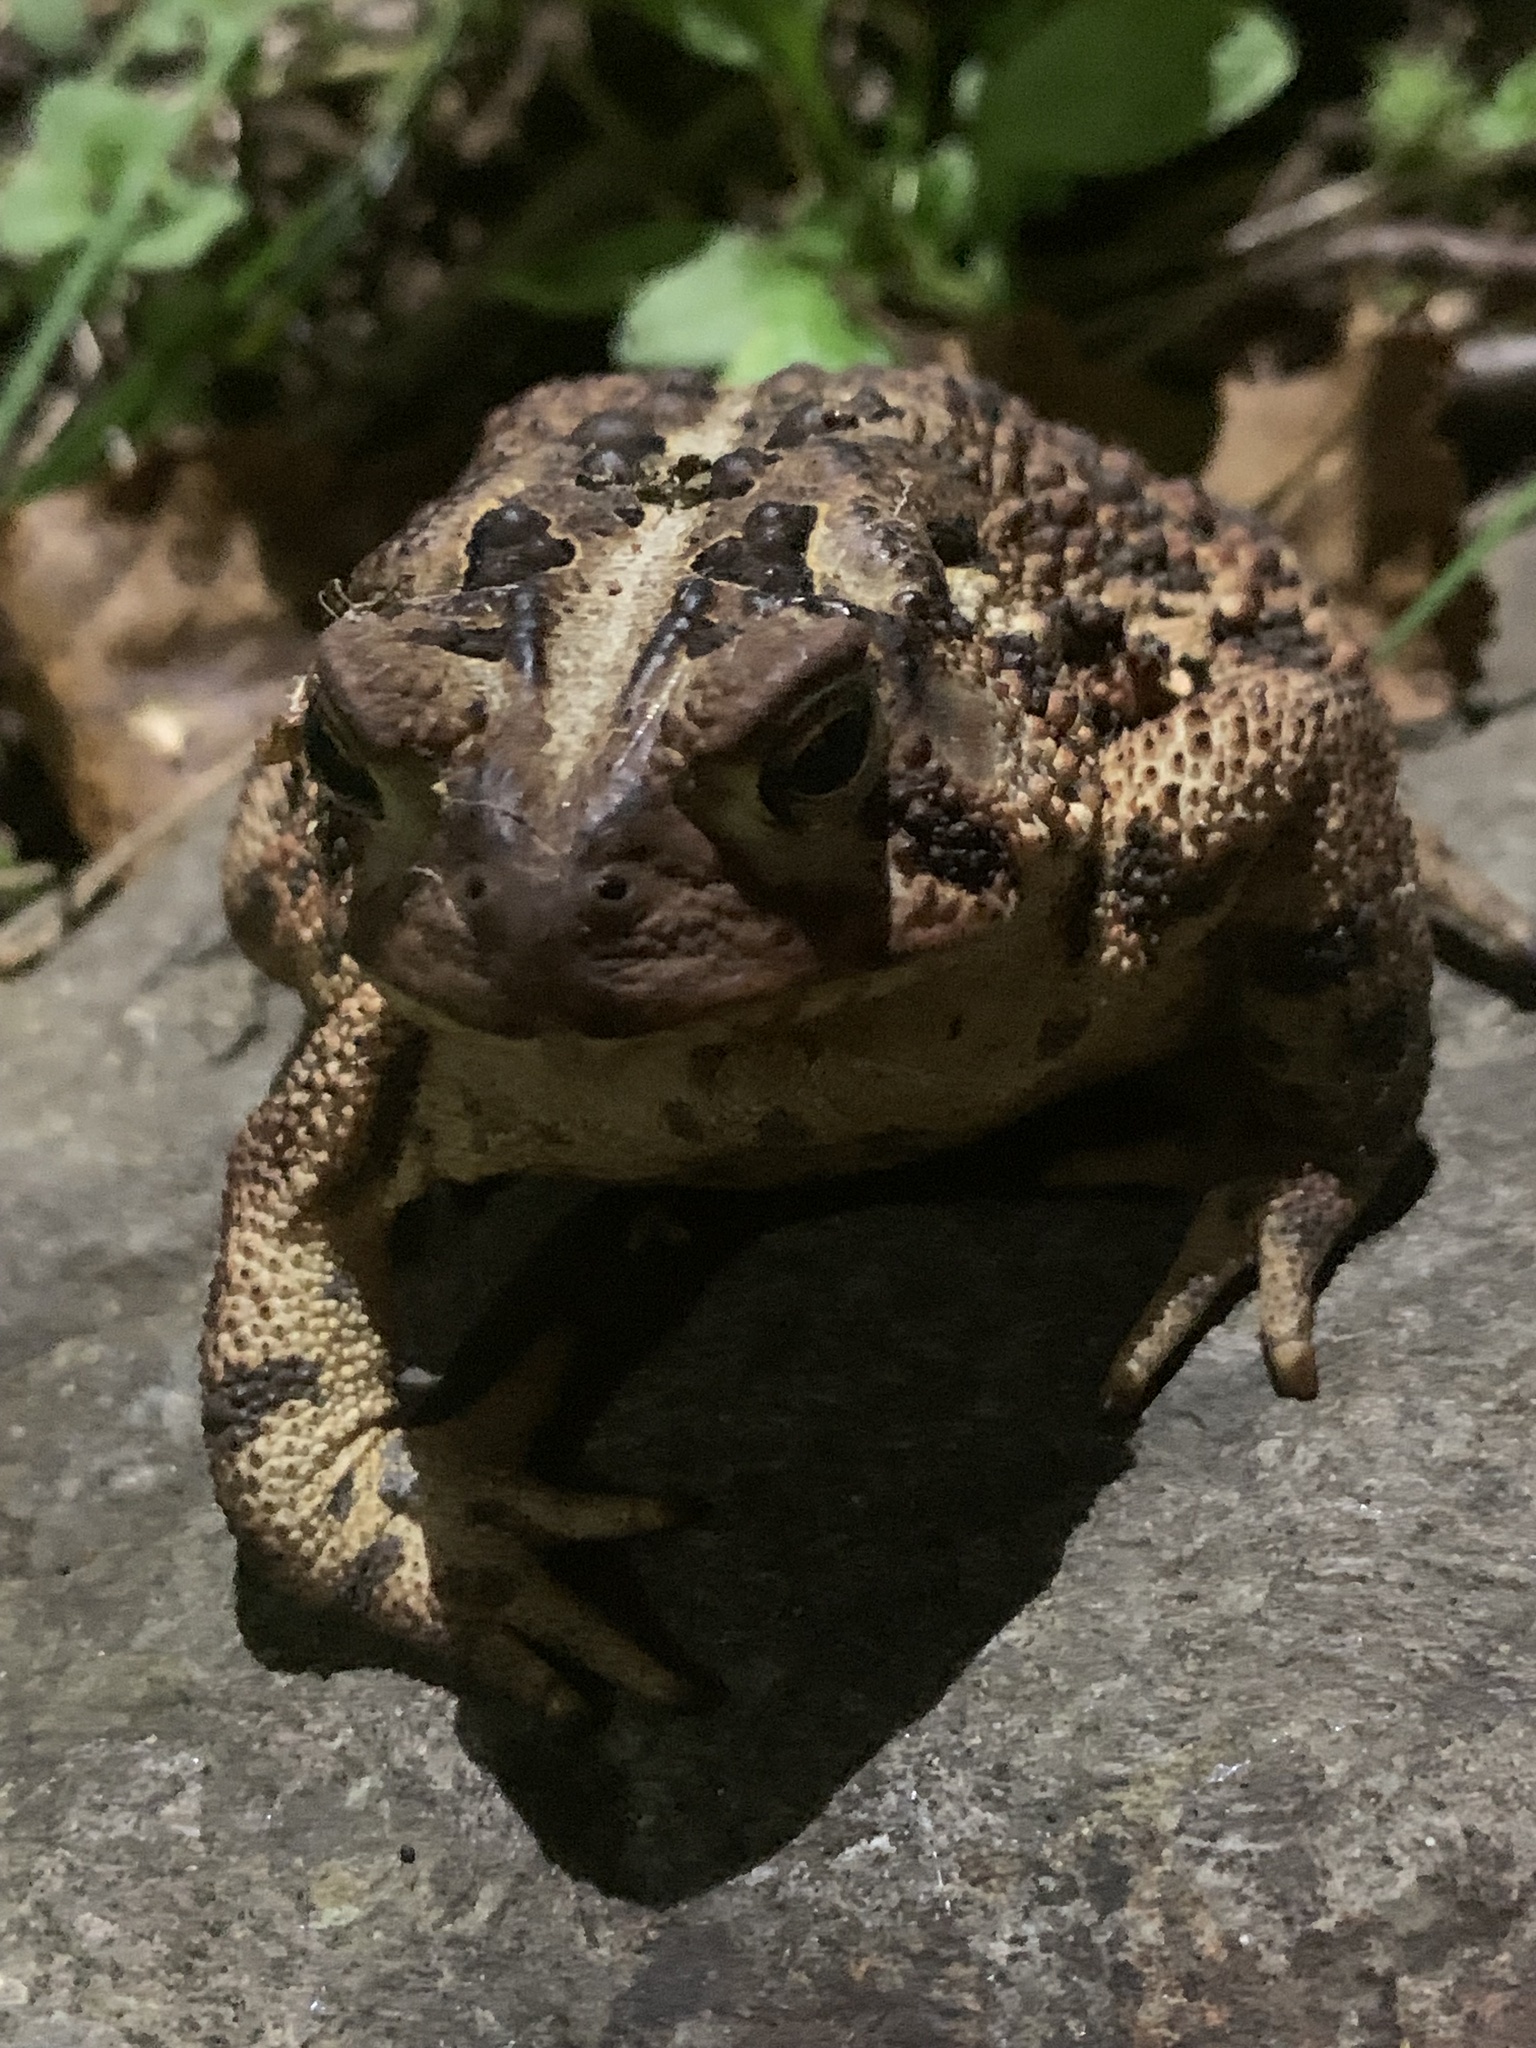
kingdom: Animalia
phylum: Chordata
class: Amphibia
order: Anura
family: Bufonidae
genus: Anaxyrus
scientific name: Anaxyrus americanus
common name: American toad
